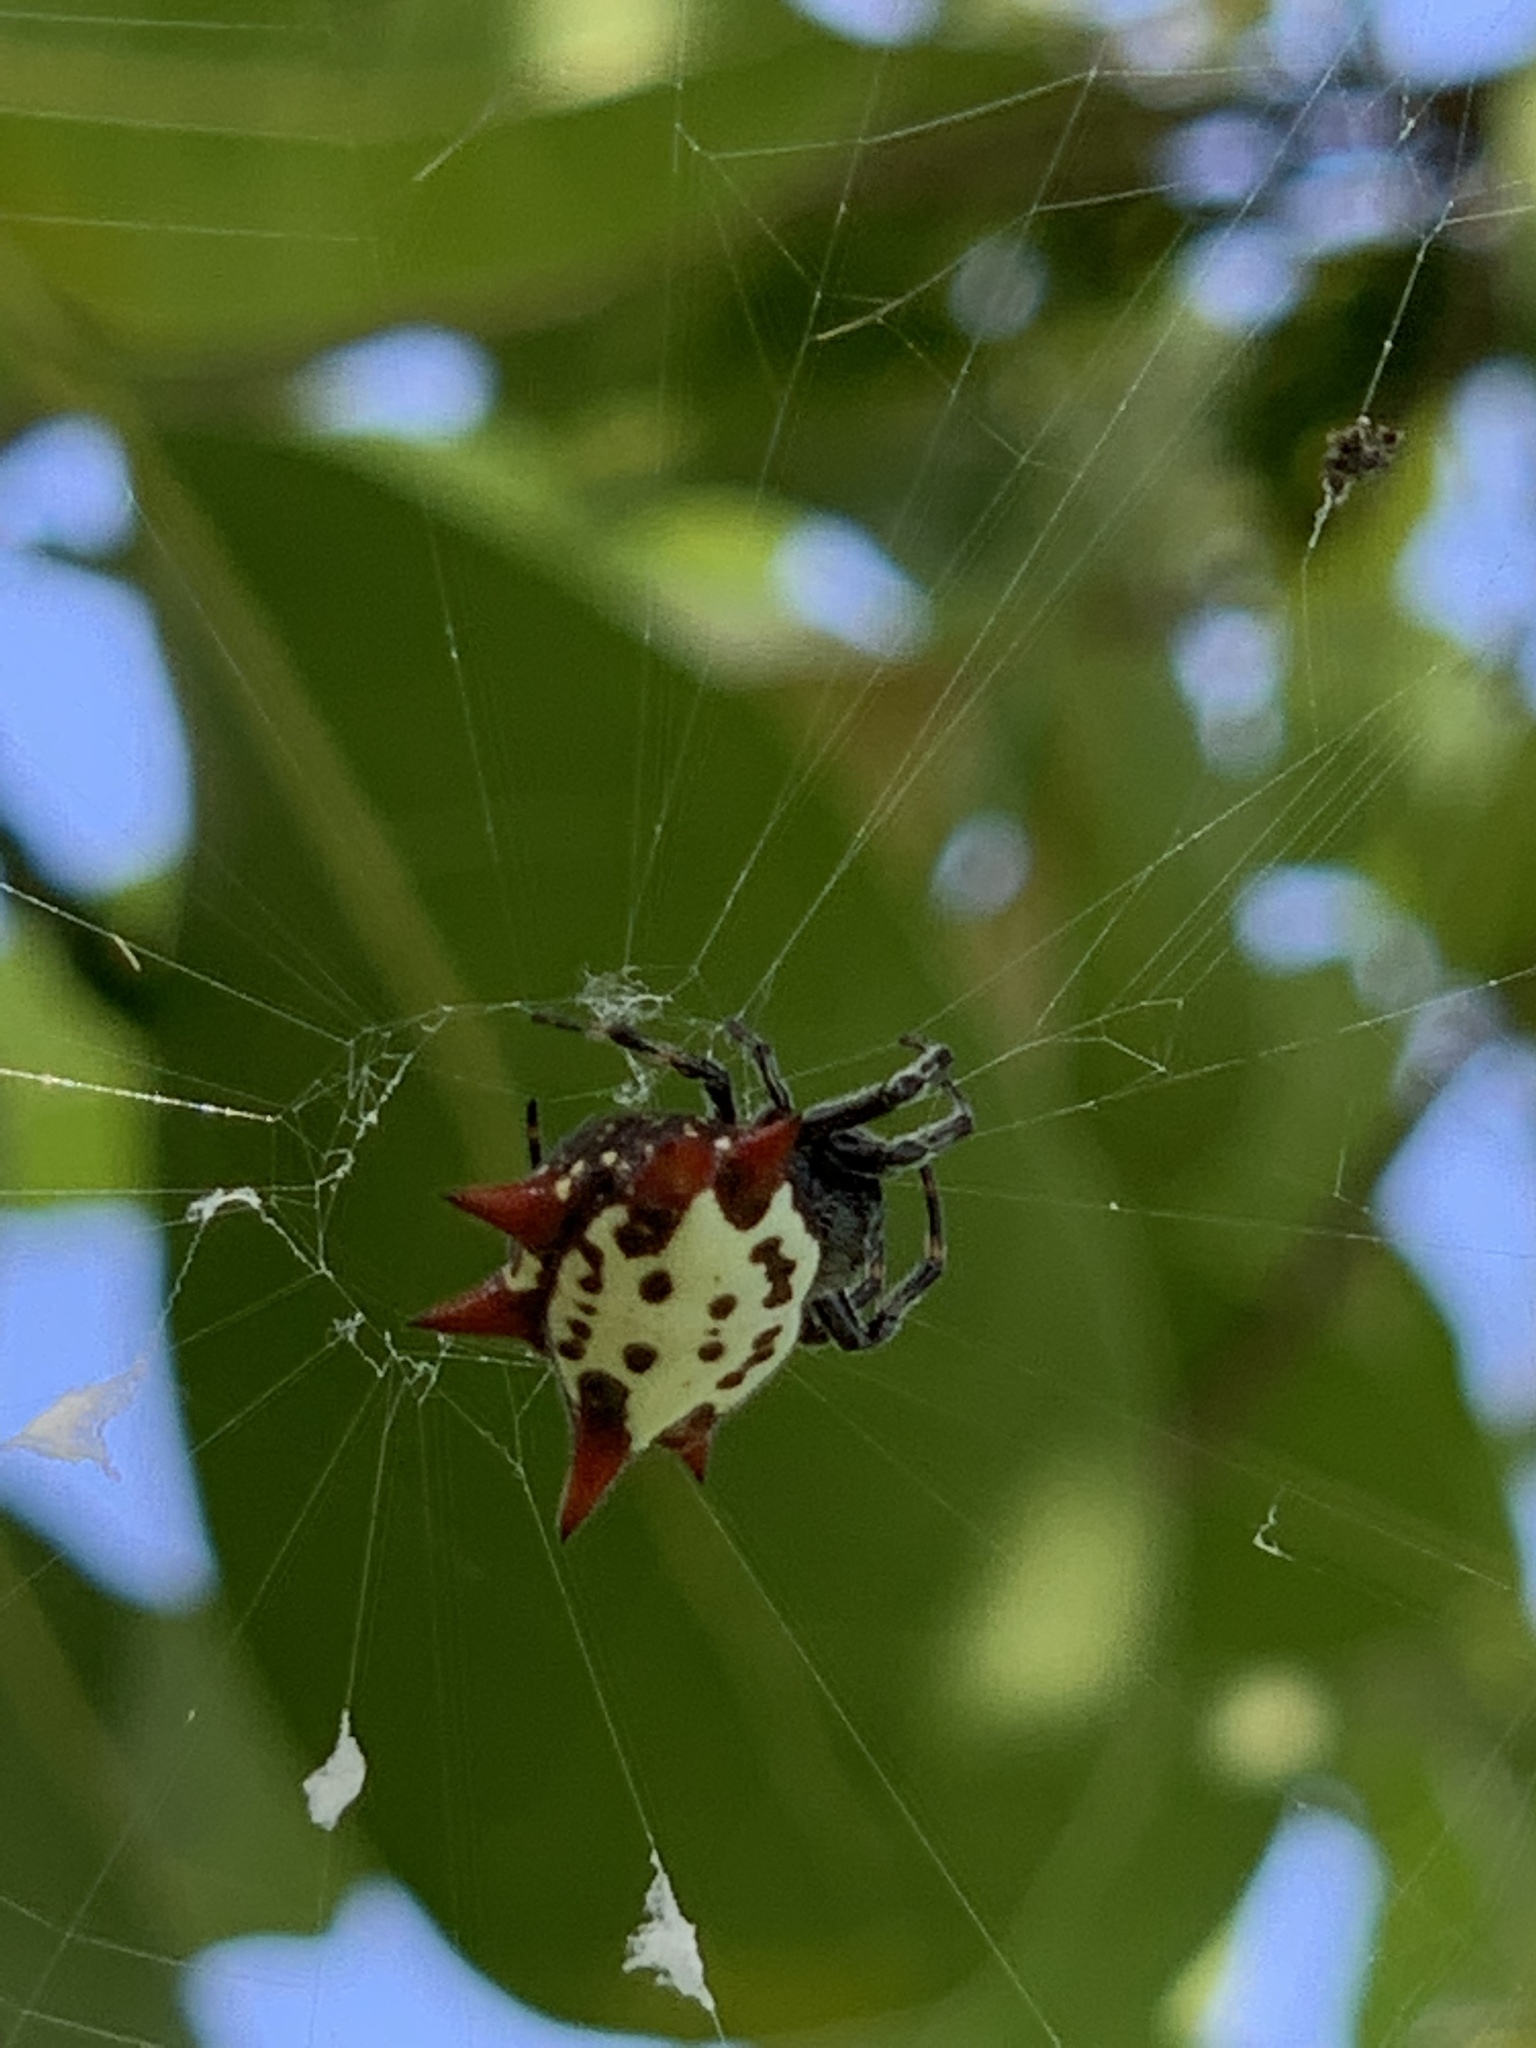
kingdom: Animalia
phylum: Arthropoda
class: Arachnida
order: Araneae
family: Araneidae
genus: Gasteracantha
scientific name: Gasteracantha cancriformis
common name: Orb weavers
